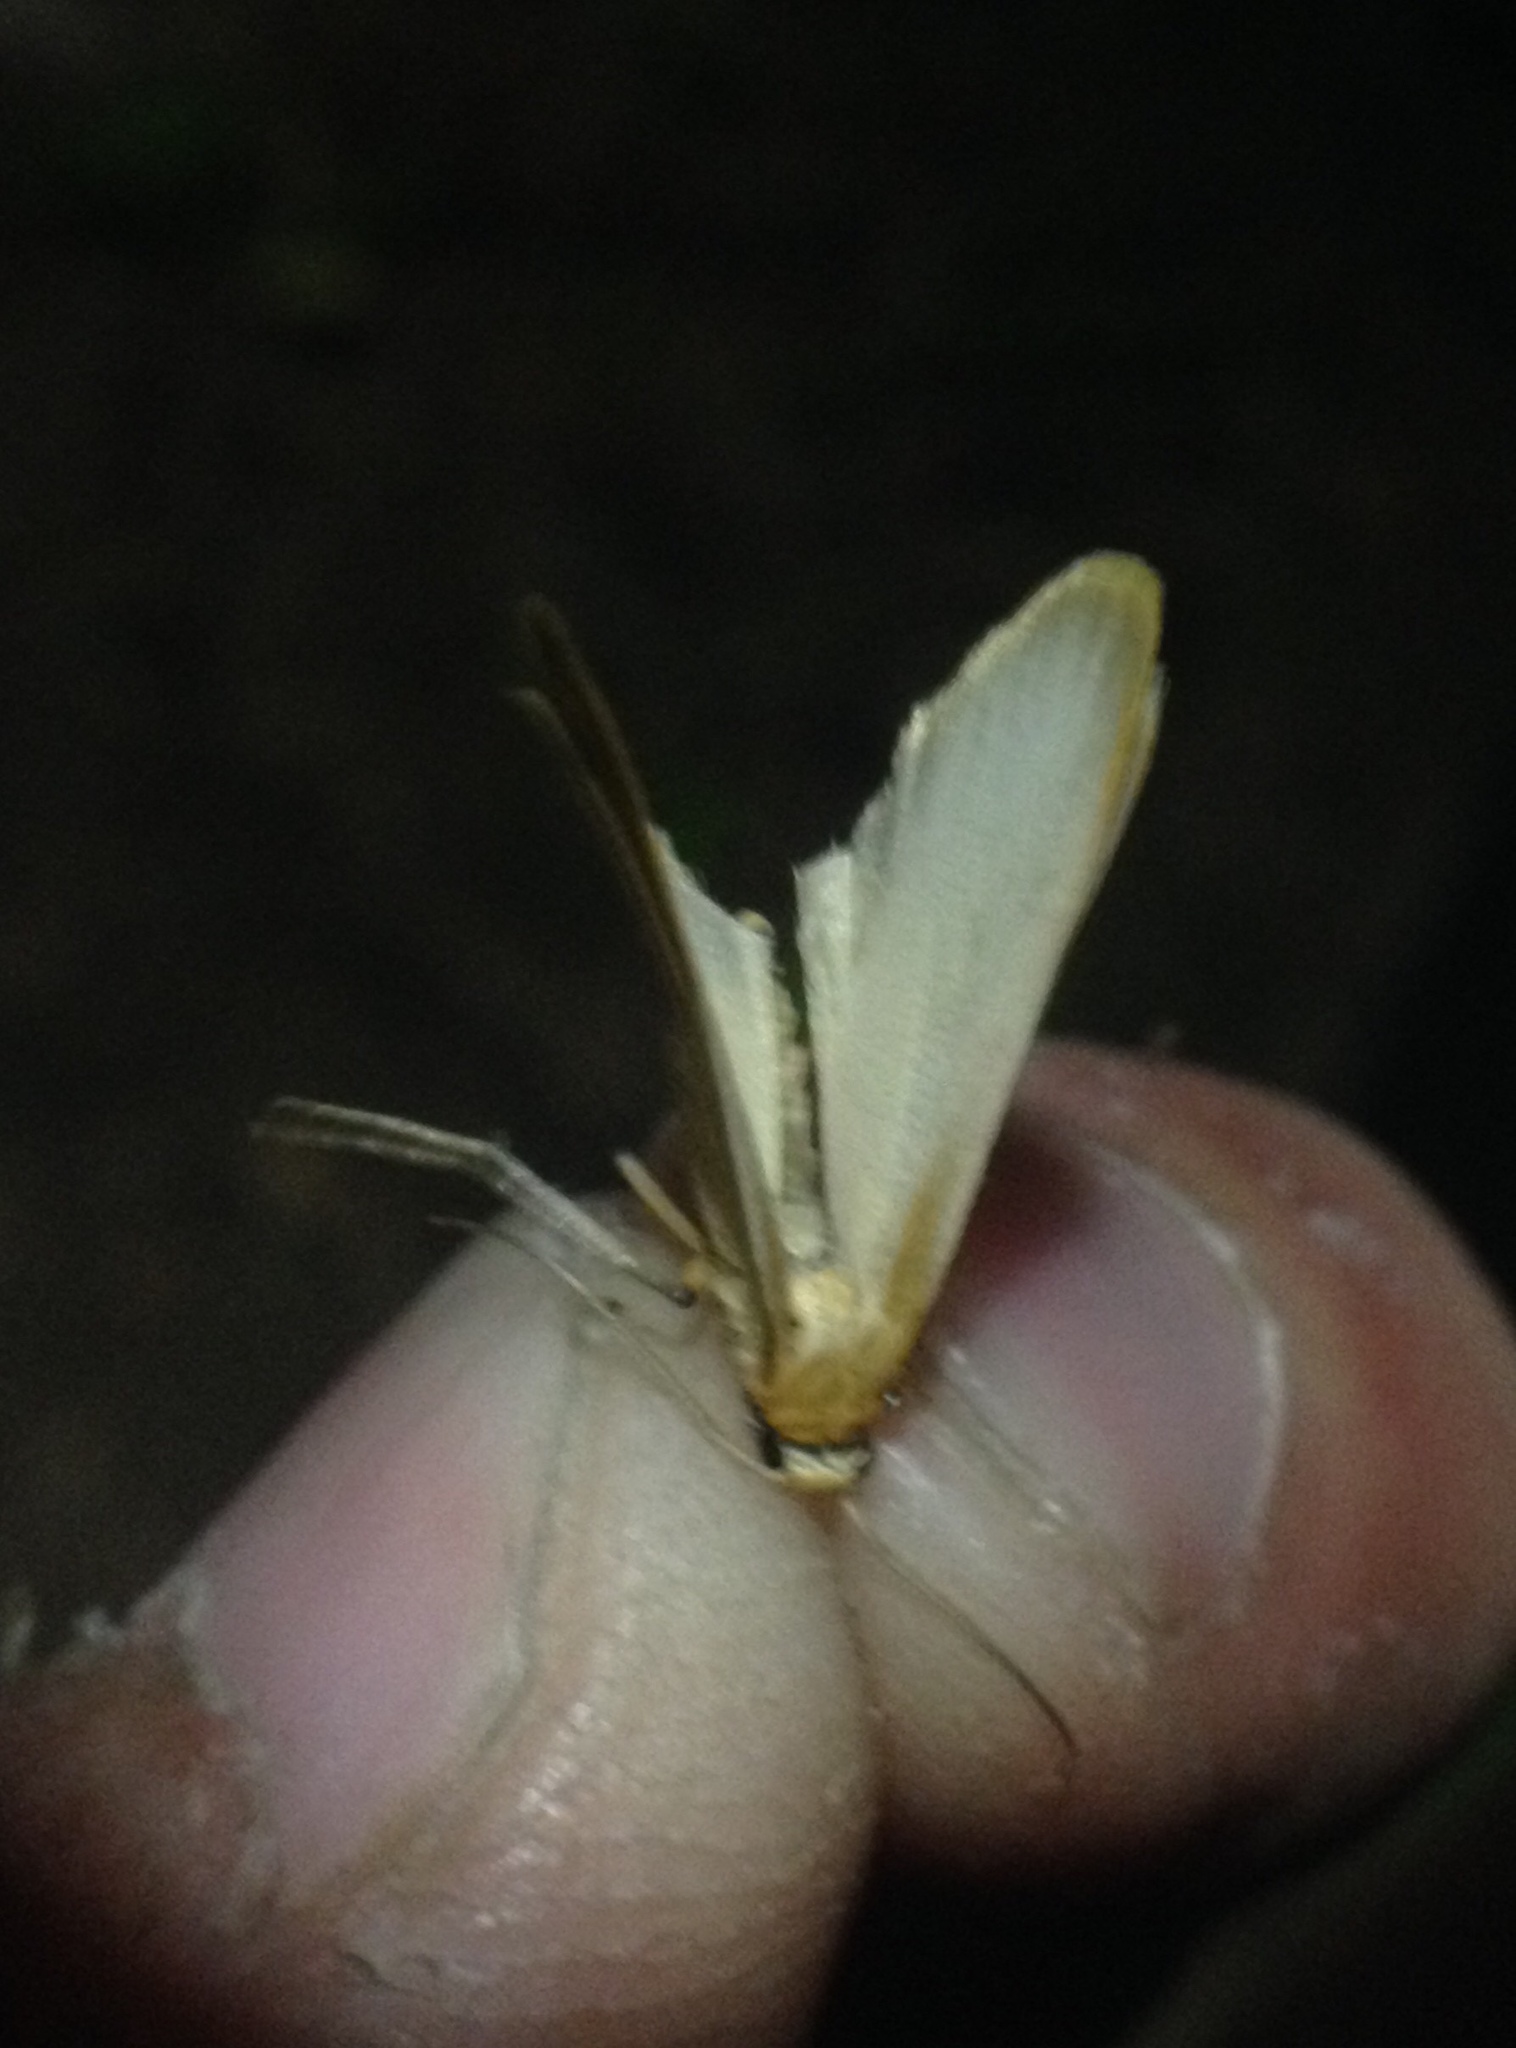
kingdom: Animalia
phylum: Arthropoda
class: Insecta
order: Lepidoptera
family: Erebidae
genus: Katha
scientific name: Katha depressa
